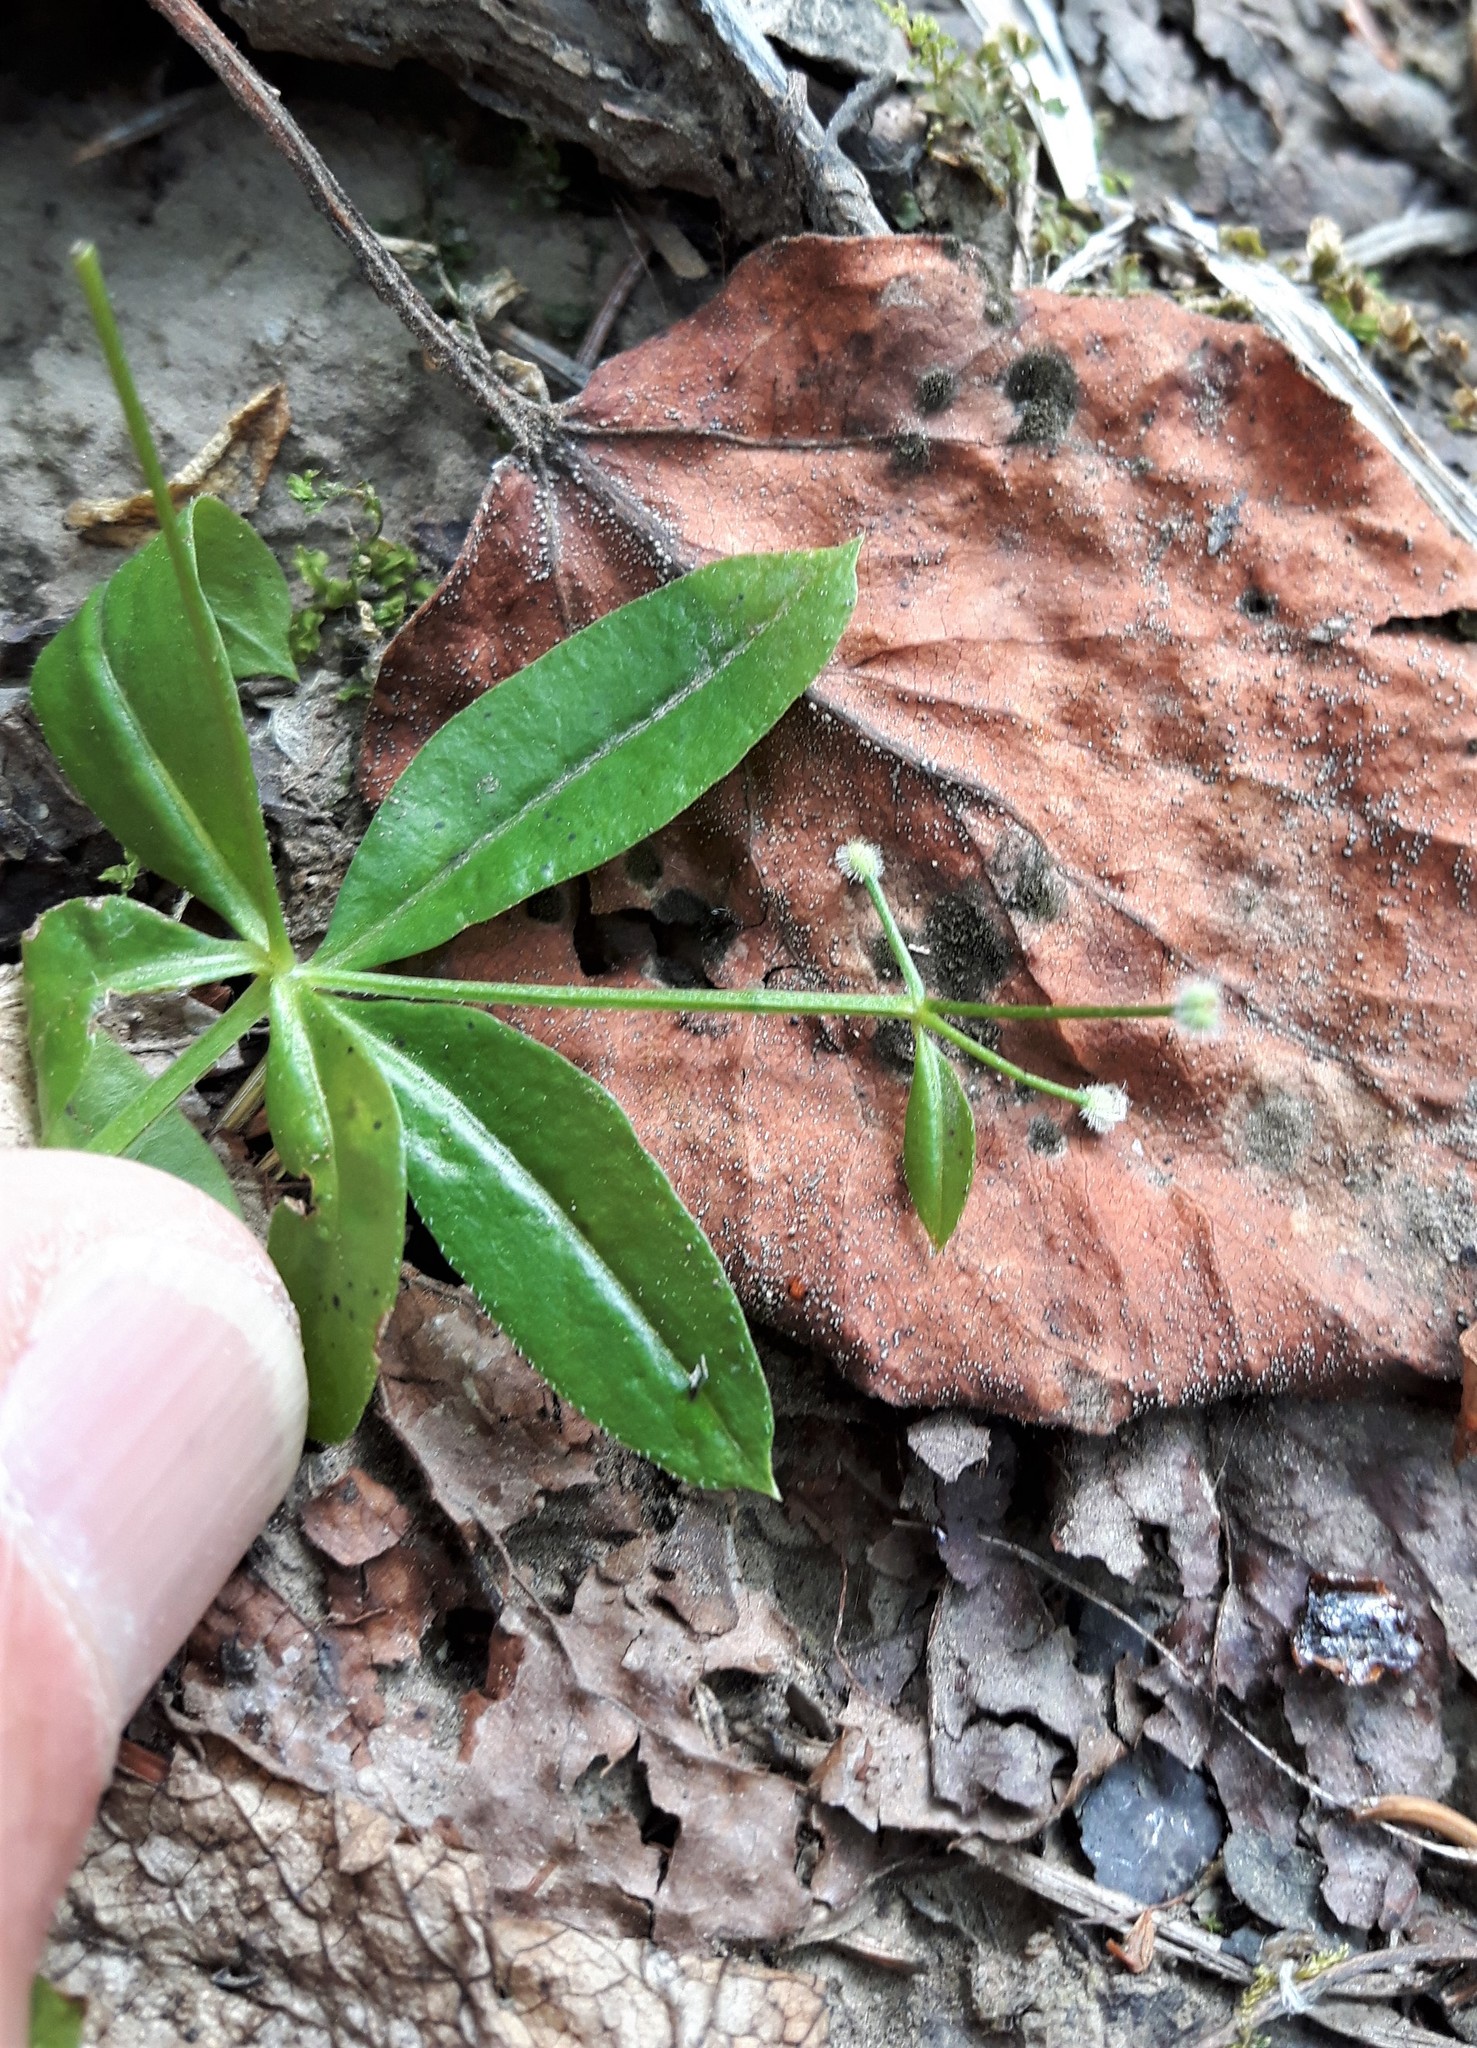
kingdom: Plantae
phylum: Tracheophyta
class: Magnoliopsida
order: Gentianales
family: Rubiaceae
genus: Galium
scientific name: Galium triflorum
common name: Fragrant bedstraw
